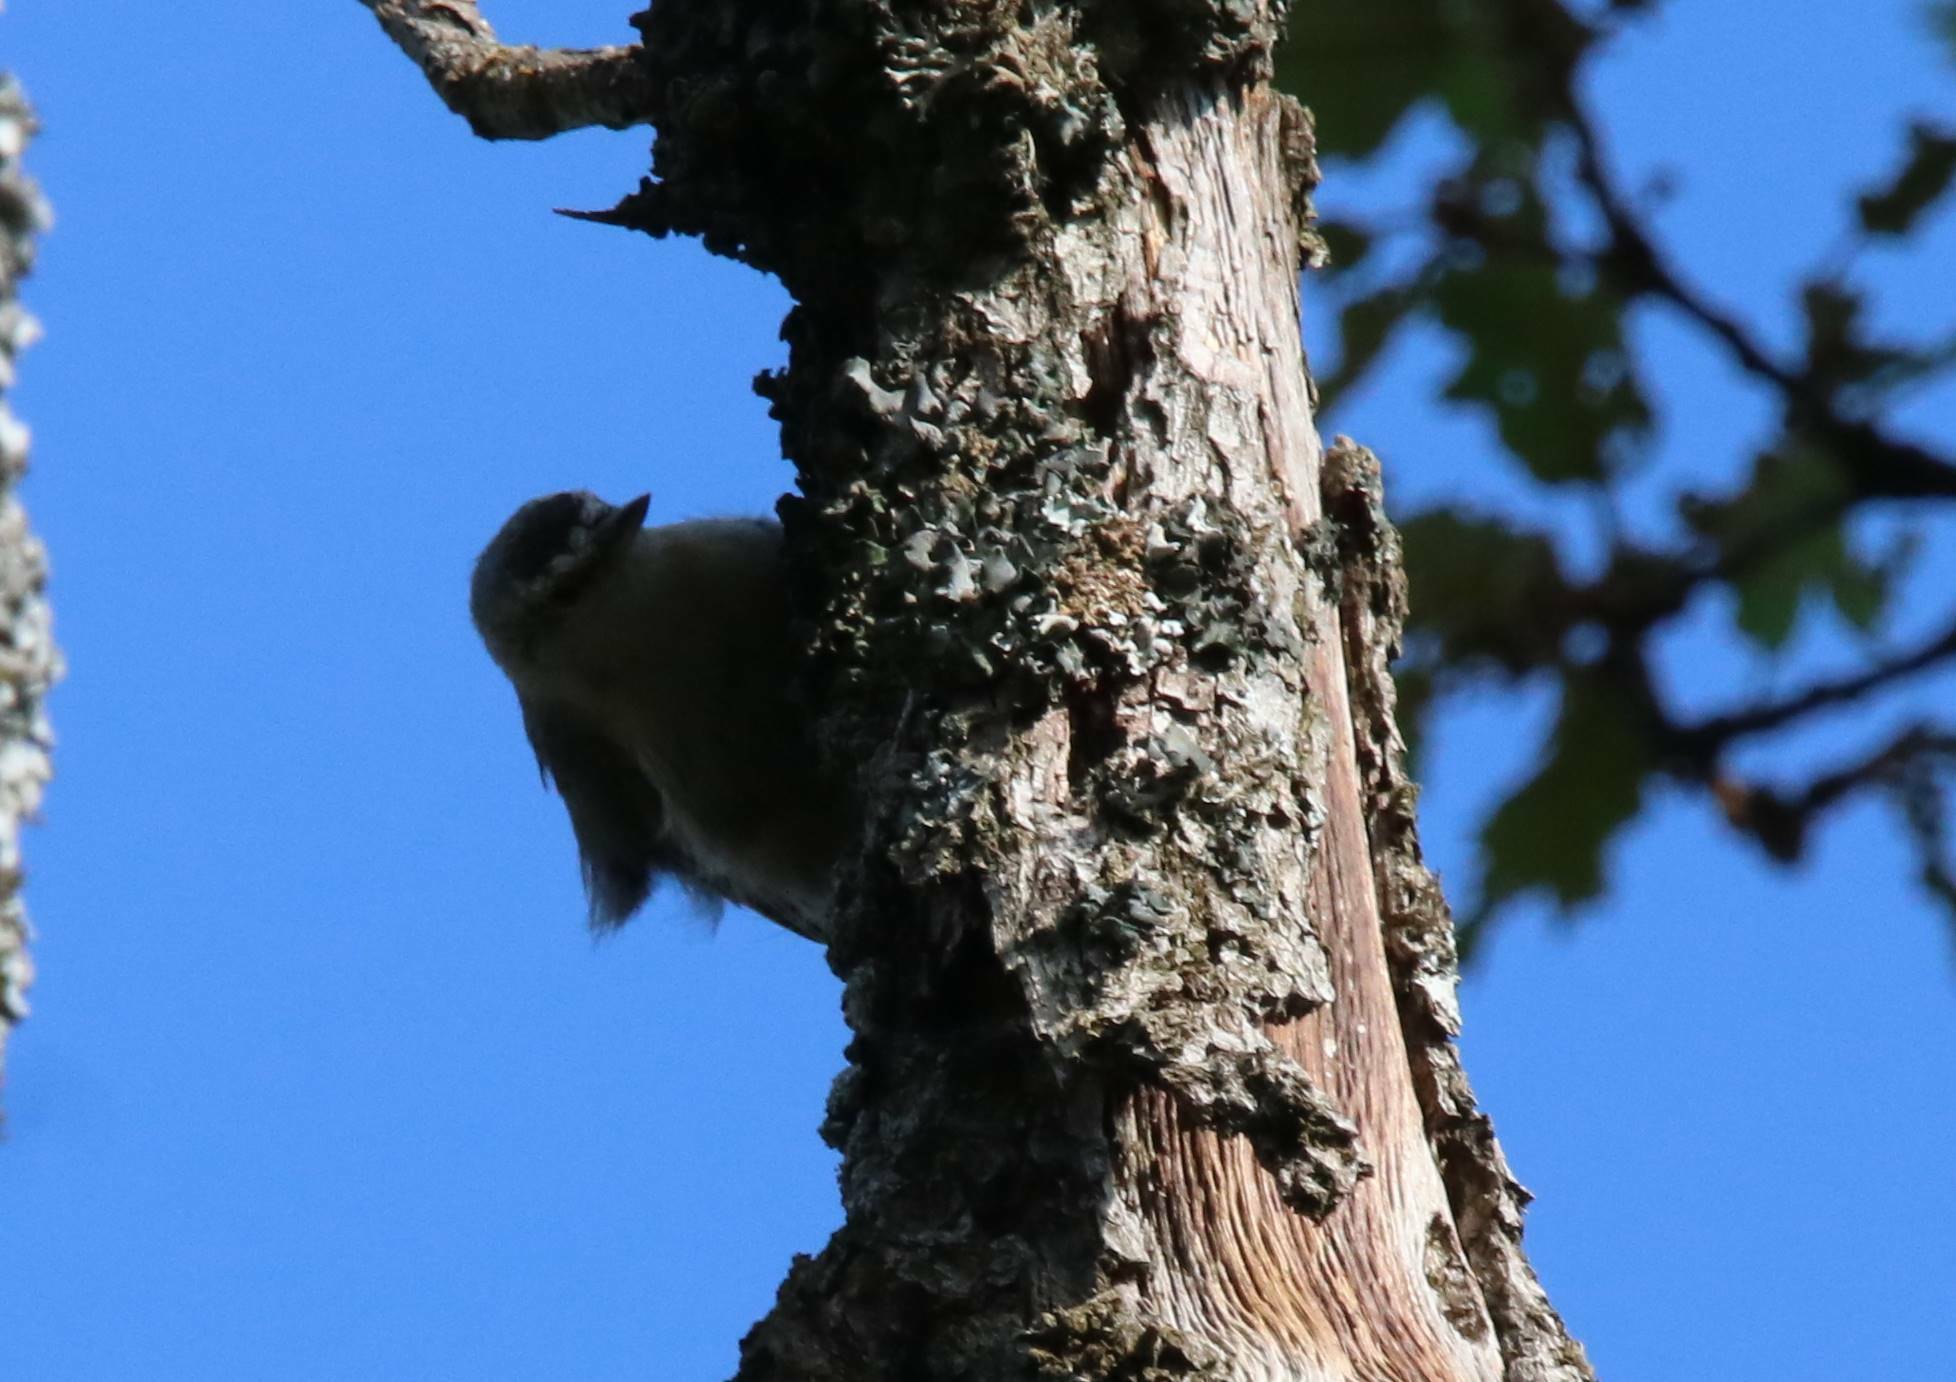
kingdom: Animalia
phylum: Chordata
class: Aves
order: Passeriformes
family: Sittidae
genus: Sitta
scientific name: Sitta ledanti
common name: Algerian nuthatch
